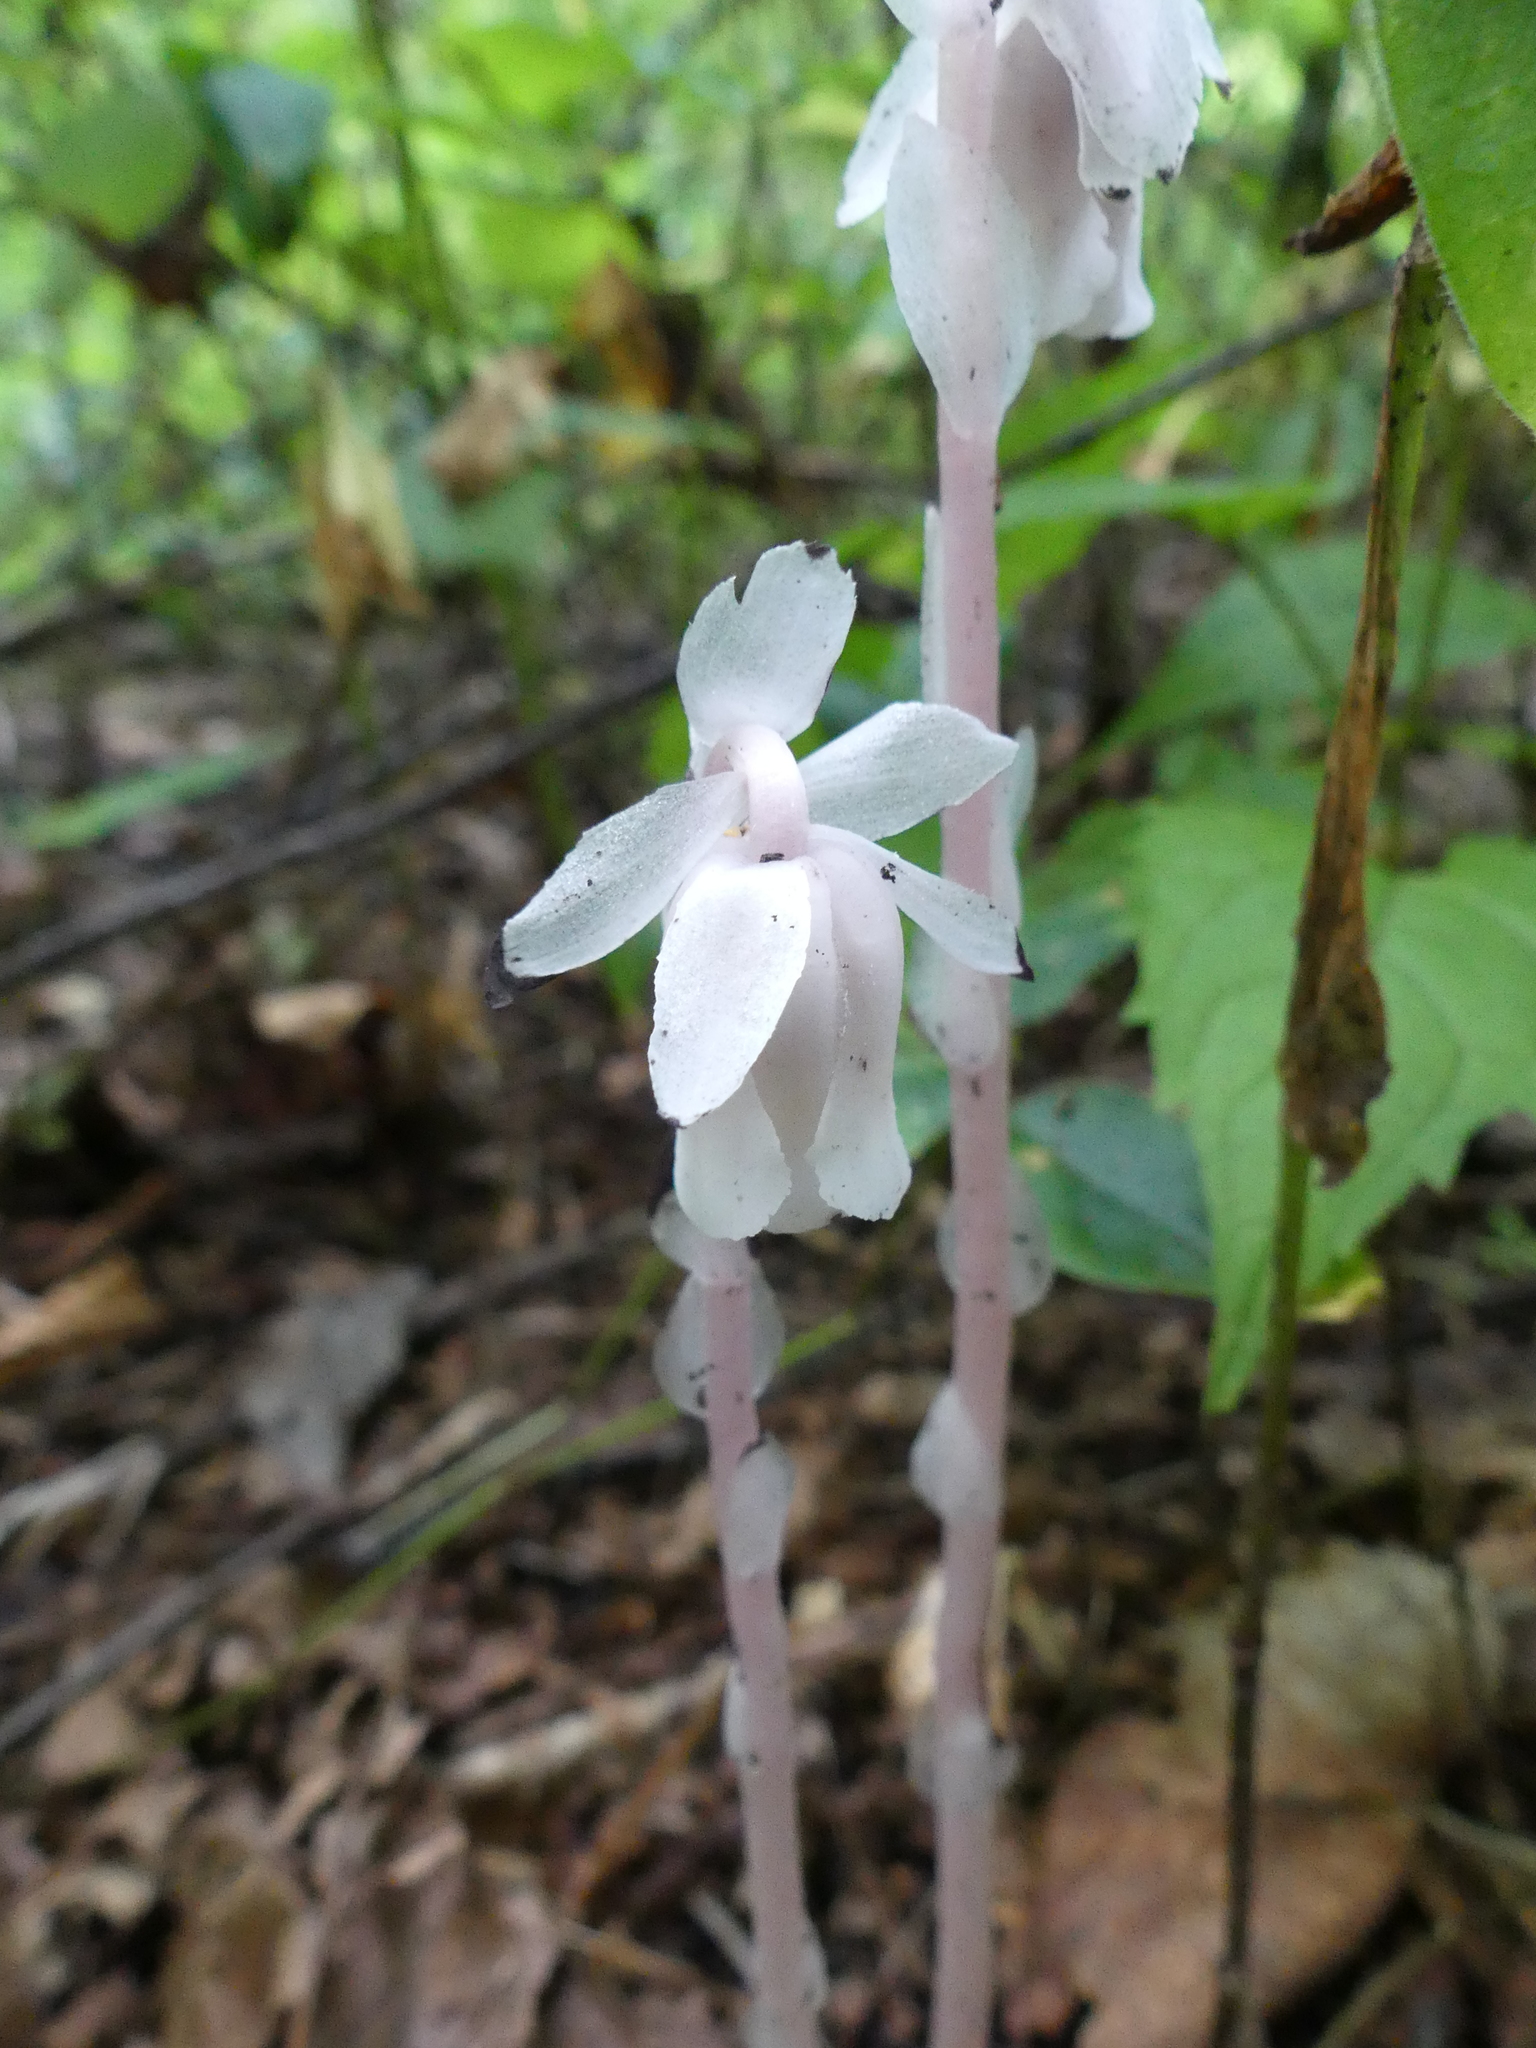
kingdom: Plantae
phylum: Tracheophyta
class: Magnoliopsida
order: Ericales
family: Ericaceae
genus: Monotropa
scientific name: Monotropa uniflora
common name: Convulsion root
